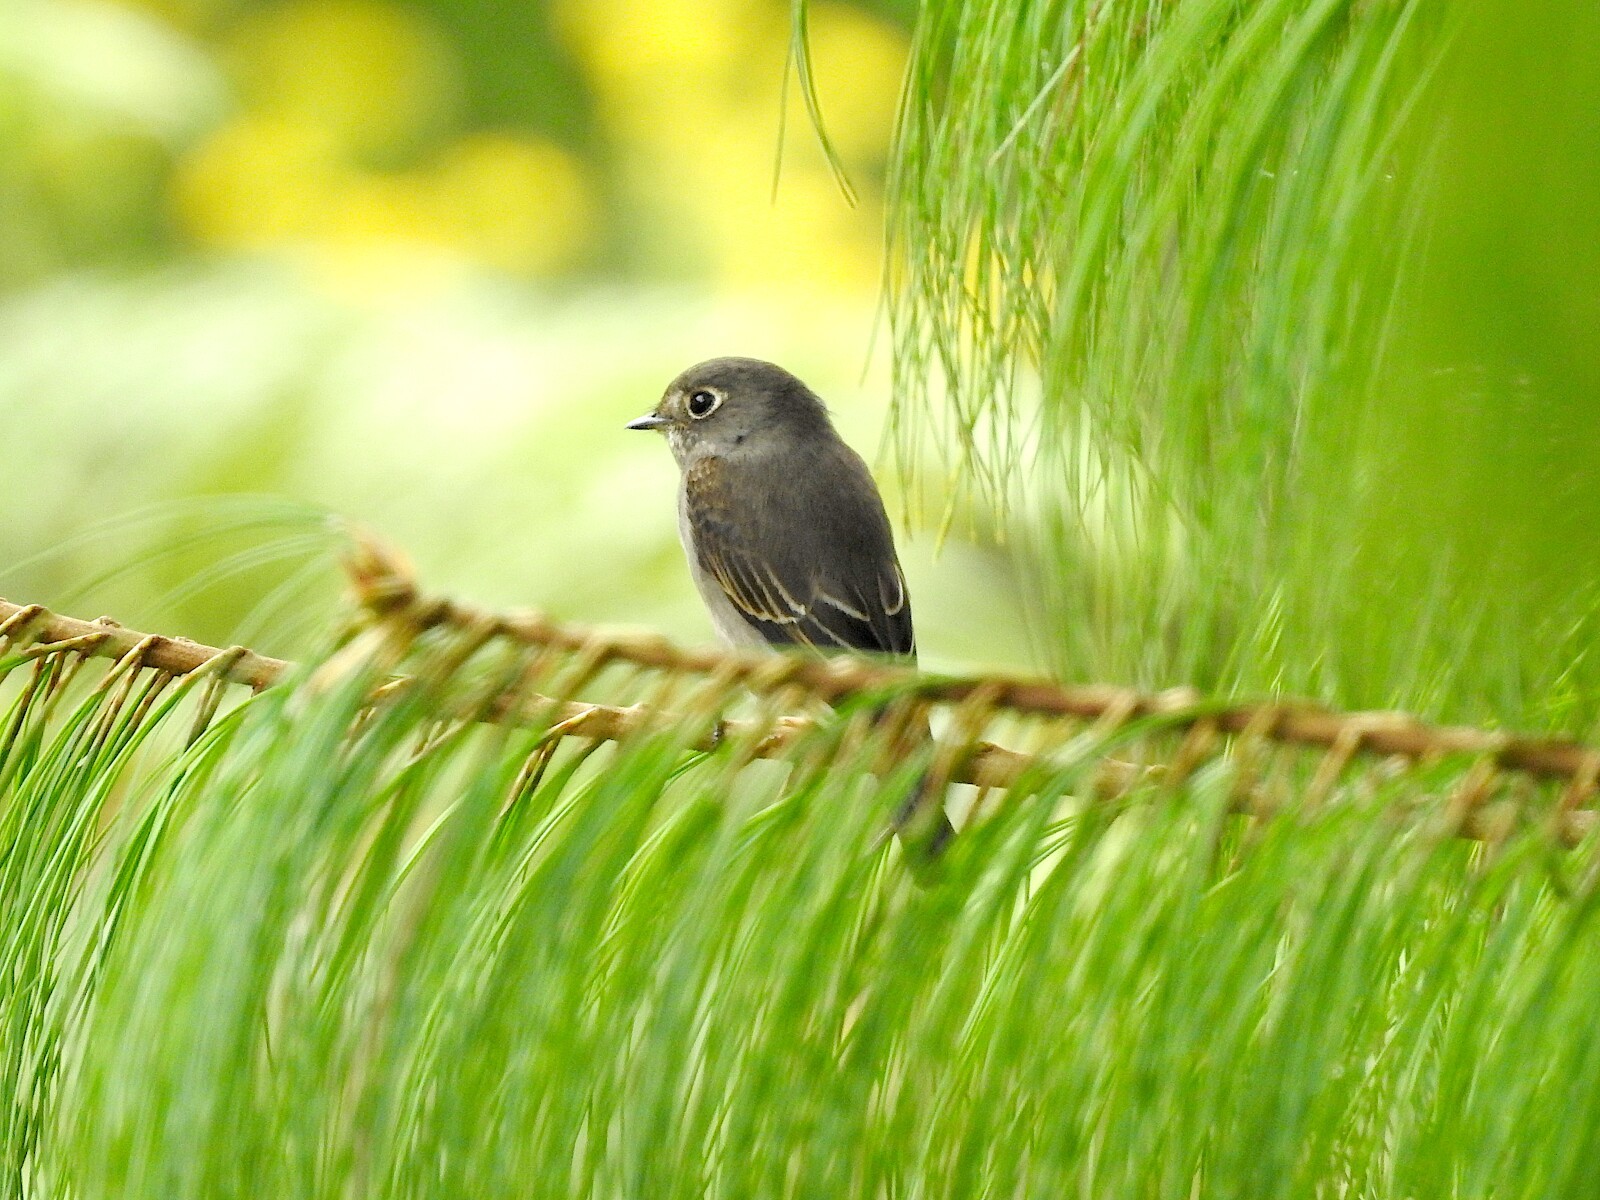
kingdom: Animalia
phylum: Chordata
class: Aves
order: Passeriformes
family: Muscicapidae
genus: Muscicapa
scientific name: Muscicapa sibirica
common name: Dark-sided flycatcher
